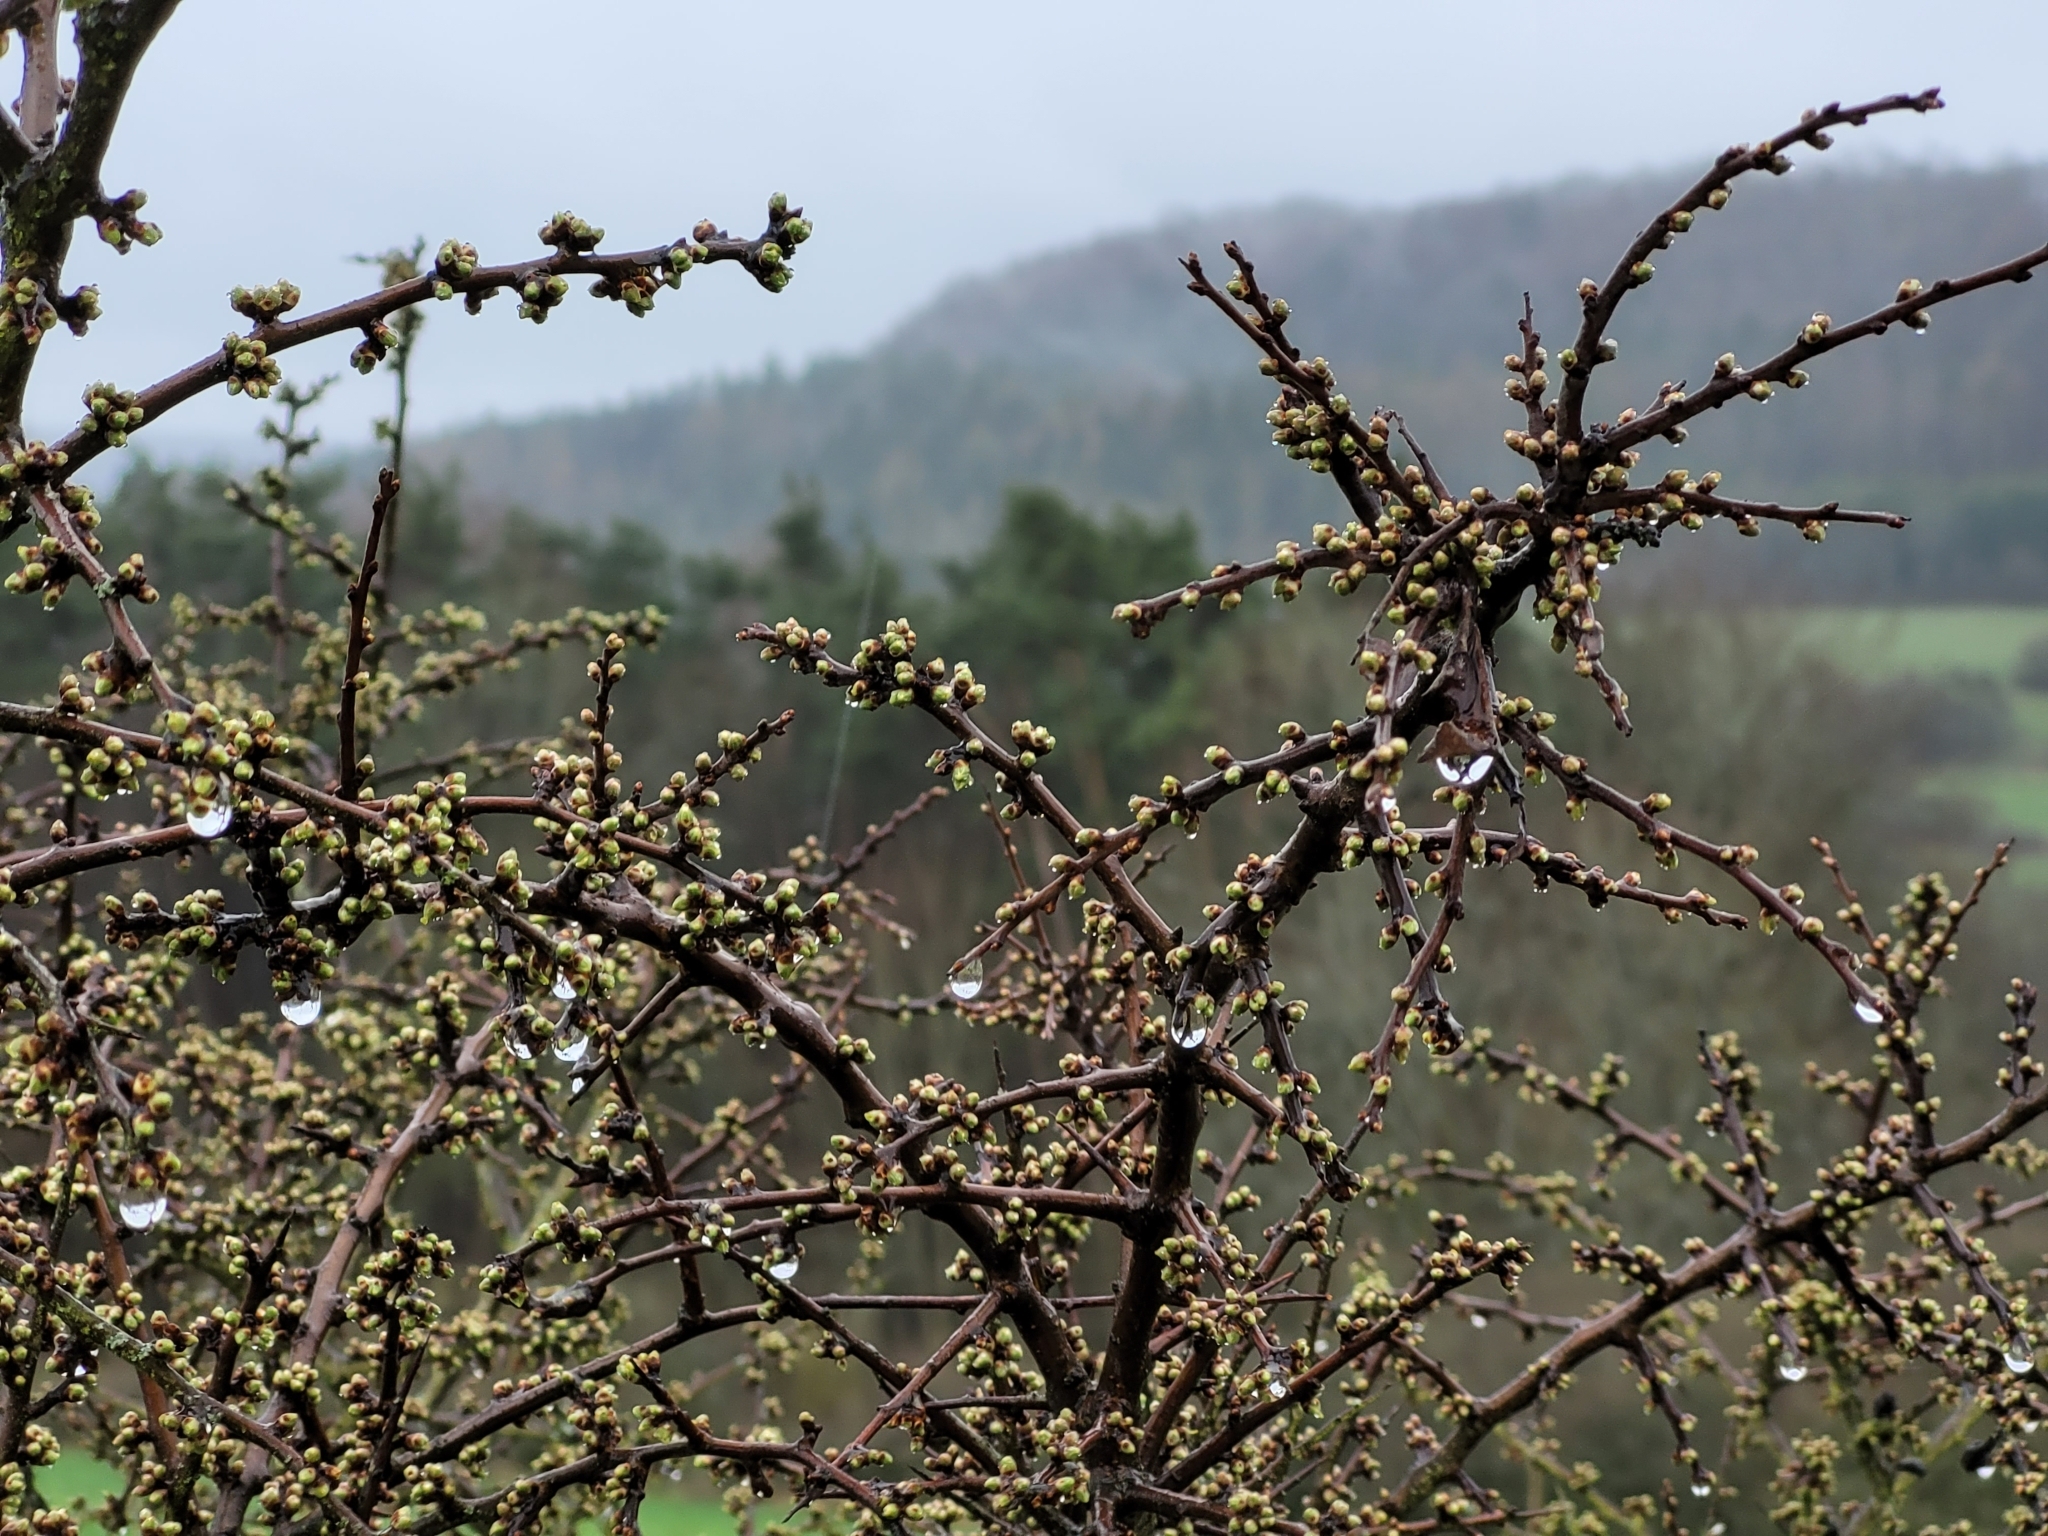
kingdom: Plantae
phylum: Tracheophyta
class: Magnoliopsida
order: Rosales
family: Rosaceae
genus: Prunus
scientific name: Prunus spinosa
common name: Blackthorn
